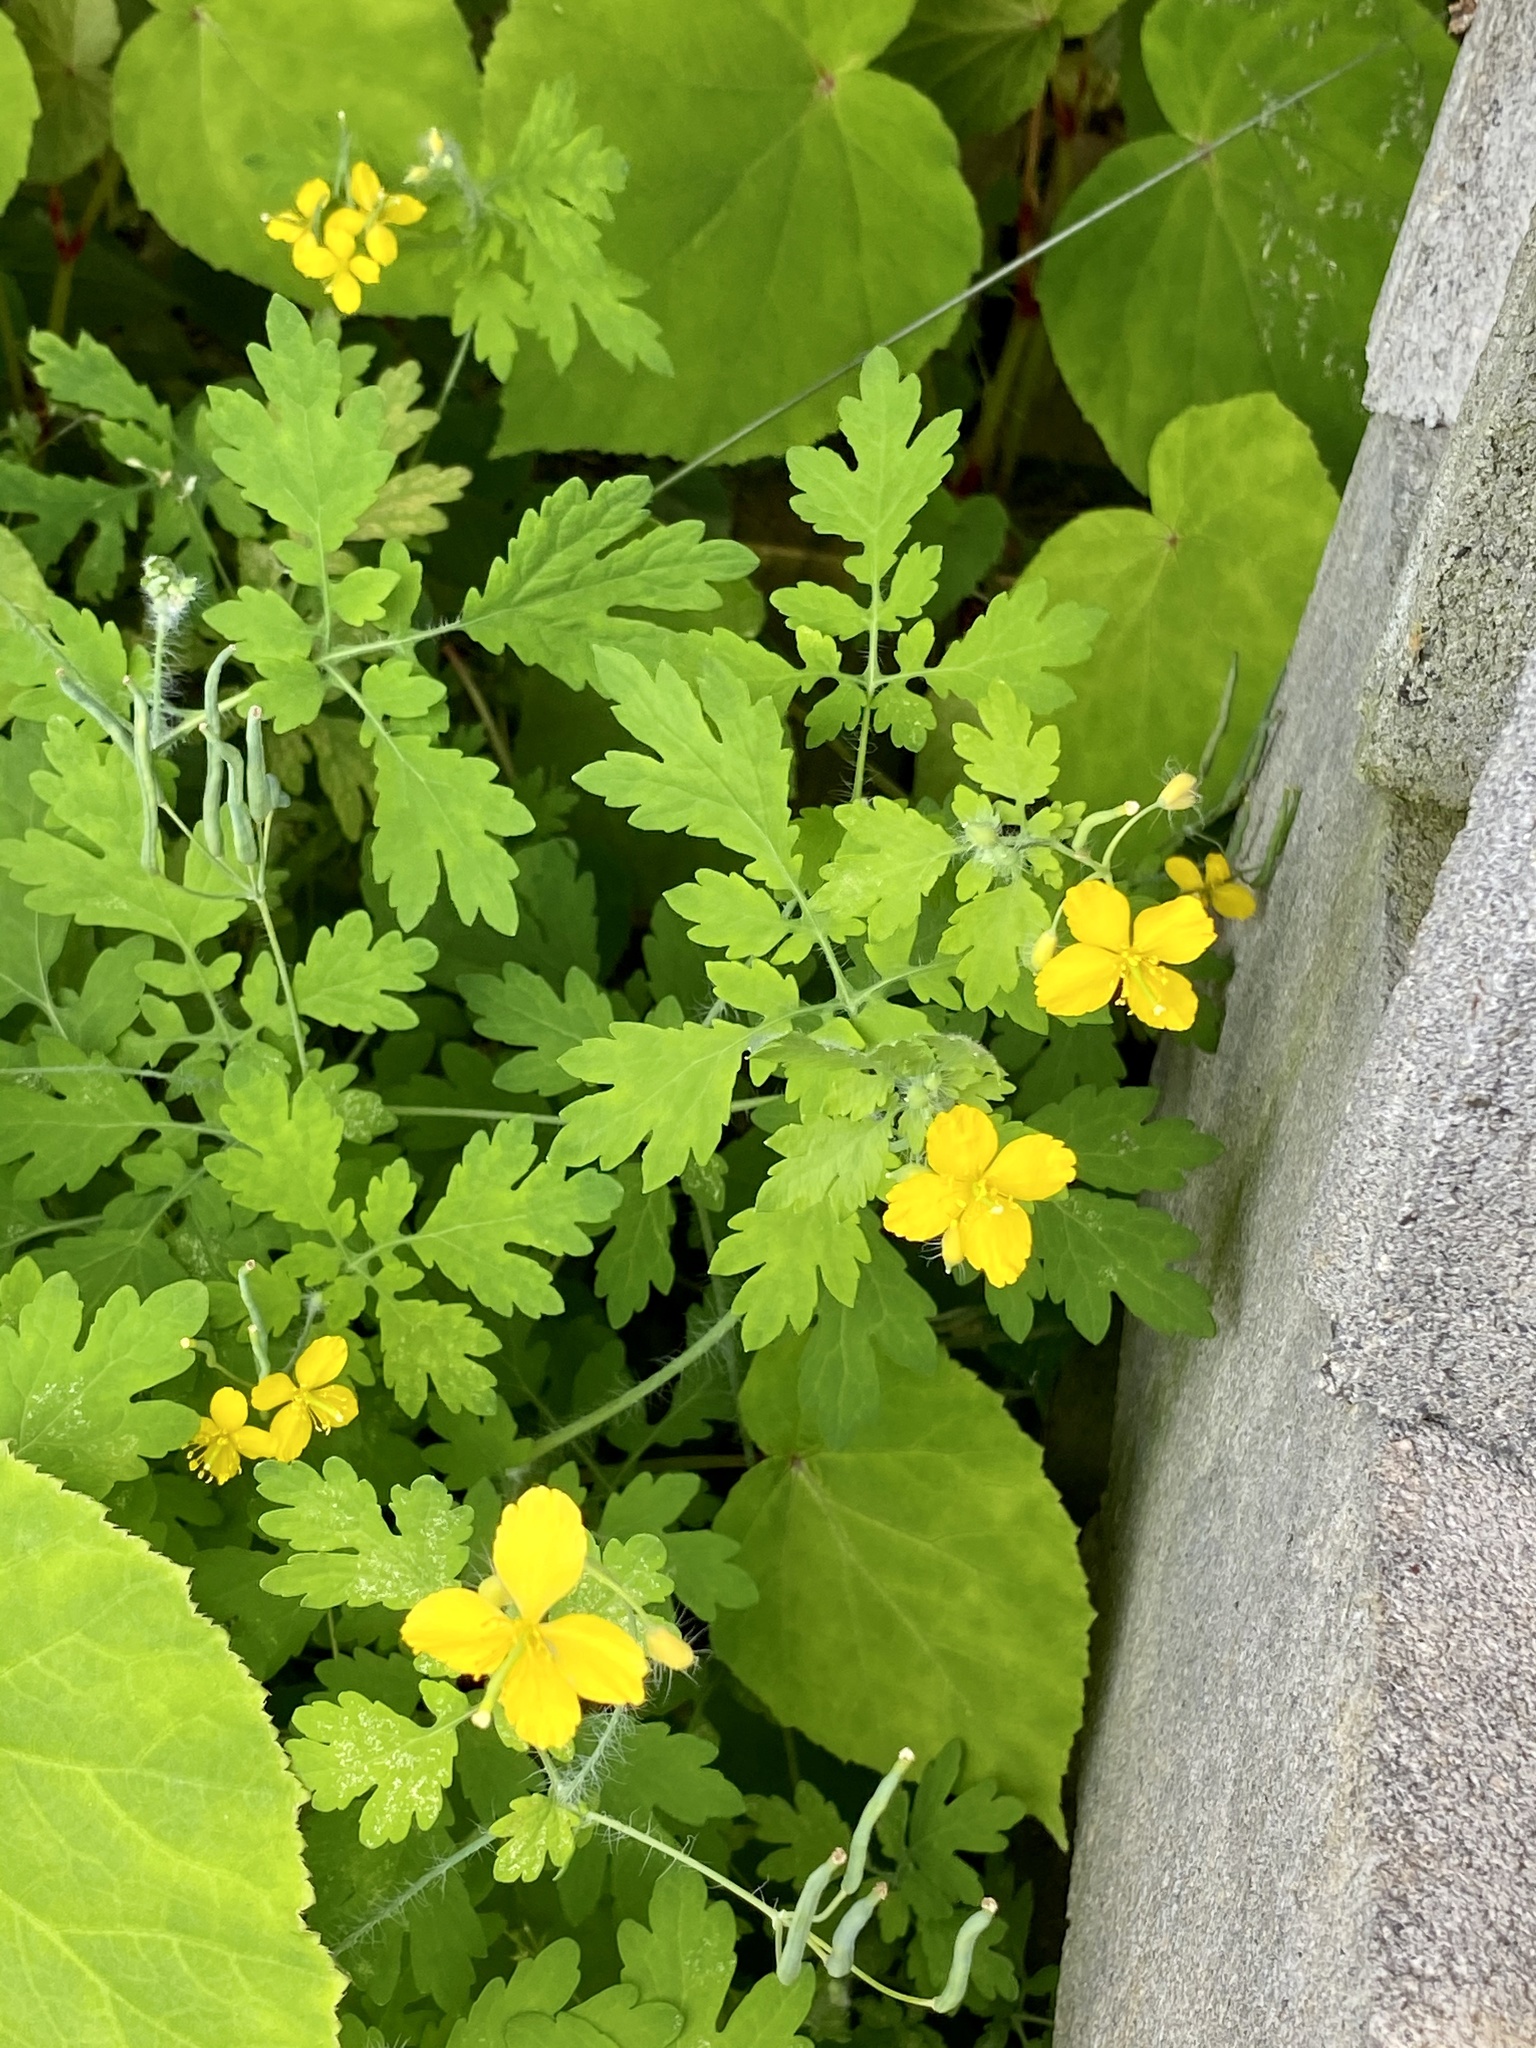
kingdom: Plantae
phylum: Tracheophyta
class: Magnoliopsida
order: Ranunculales
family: Papaveraceae
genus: Chelidonium
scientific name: Chelidonium majus
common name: Greater celandine
